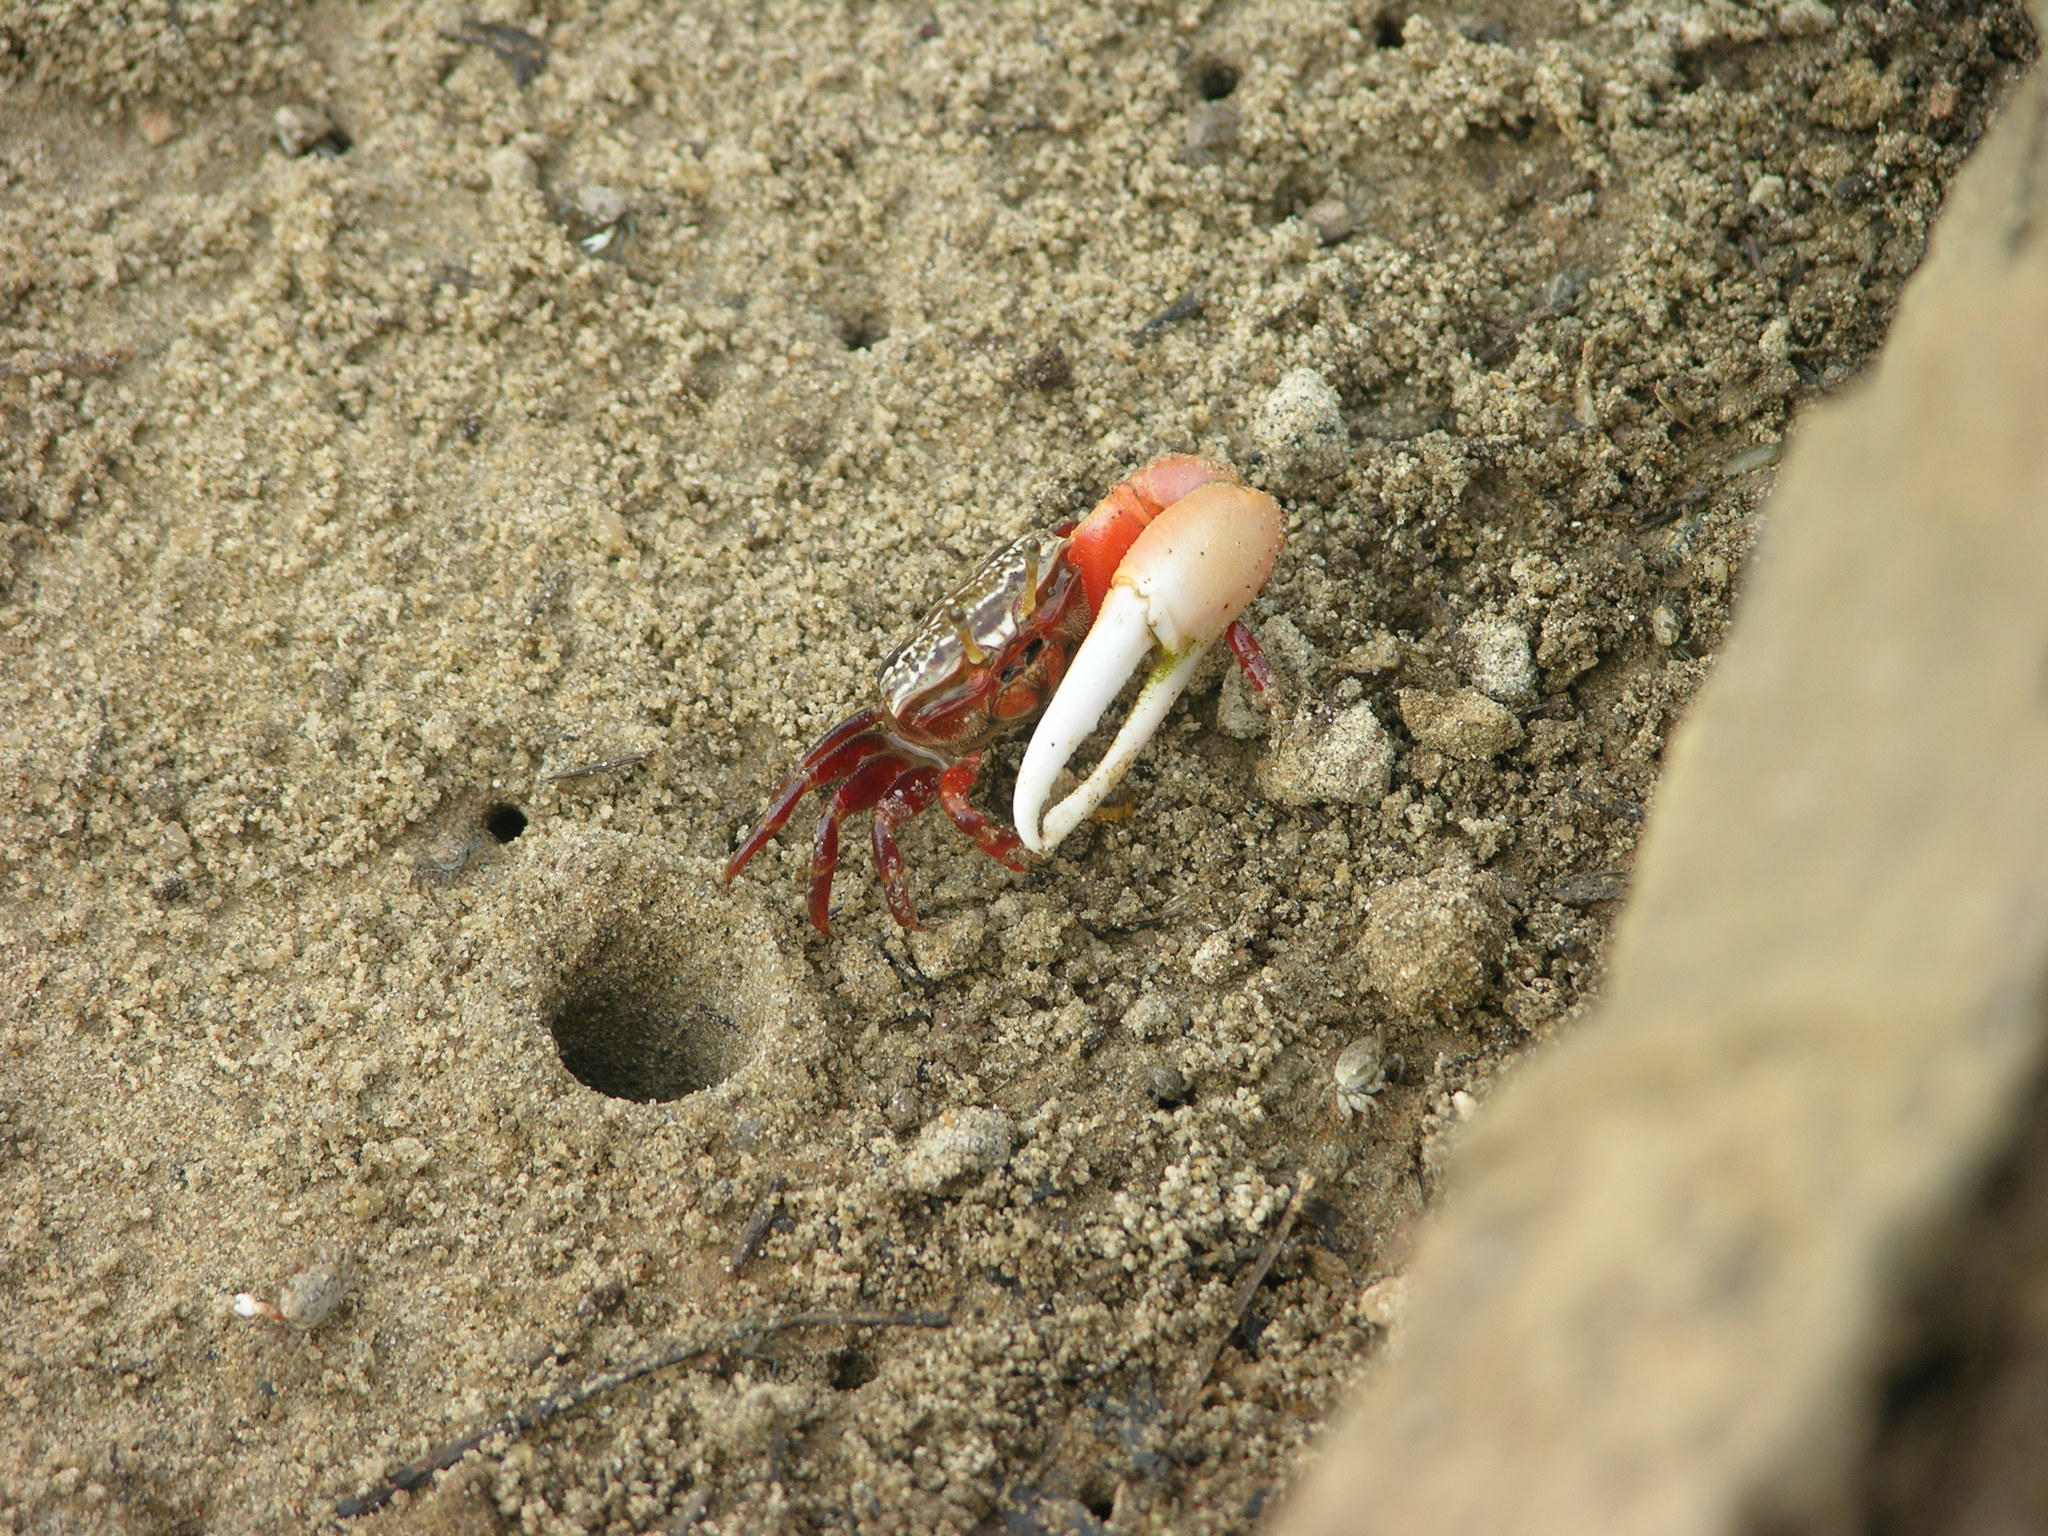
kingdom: Animalia
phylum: Arthropoda
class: Malacostraca
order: Decapoda
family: Ocypodidae
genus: Austruca
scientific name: Austruca annulipes
